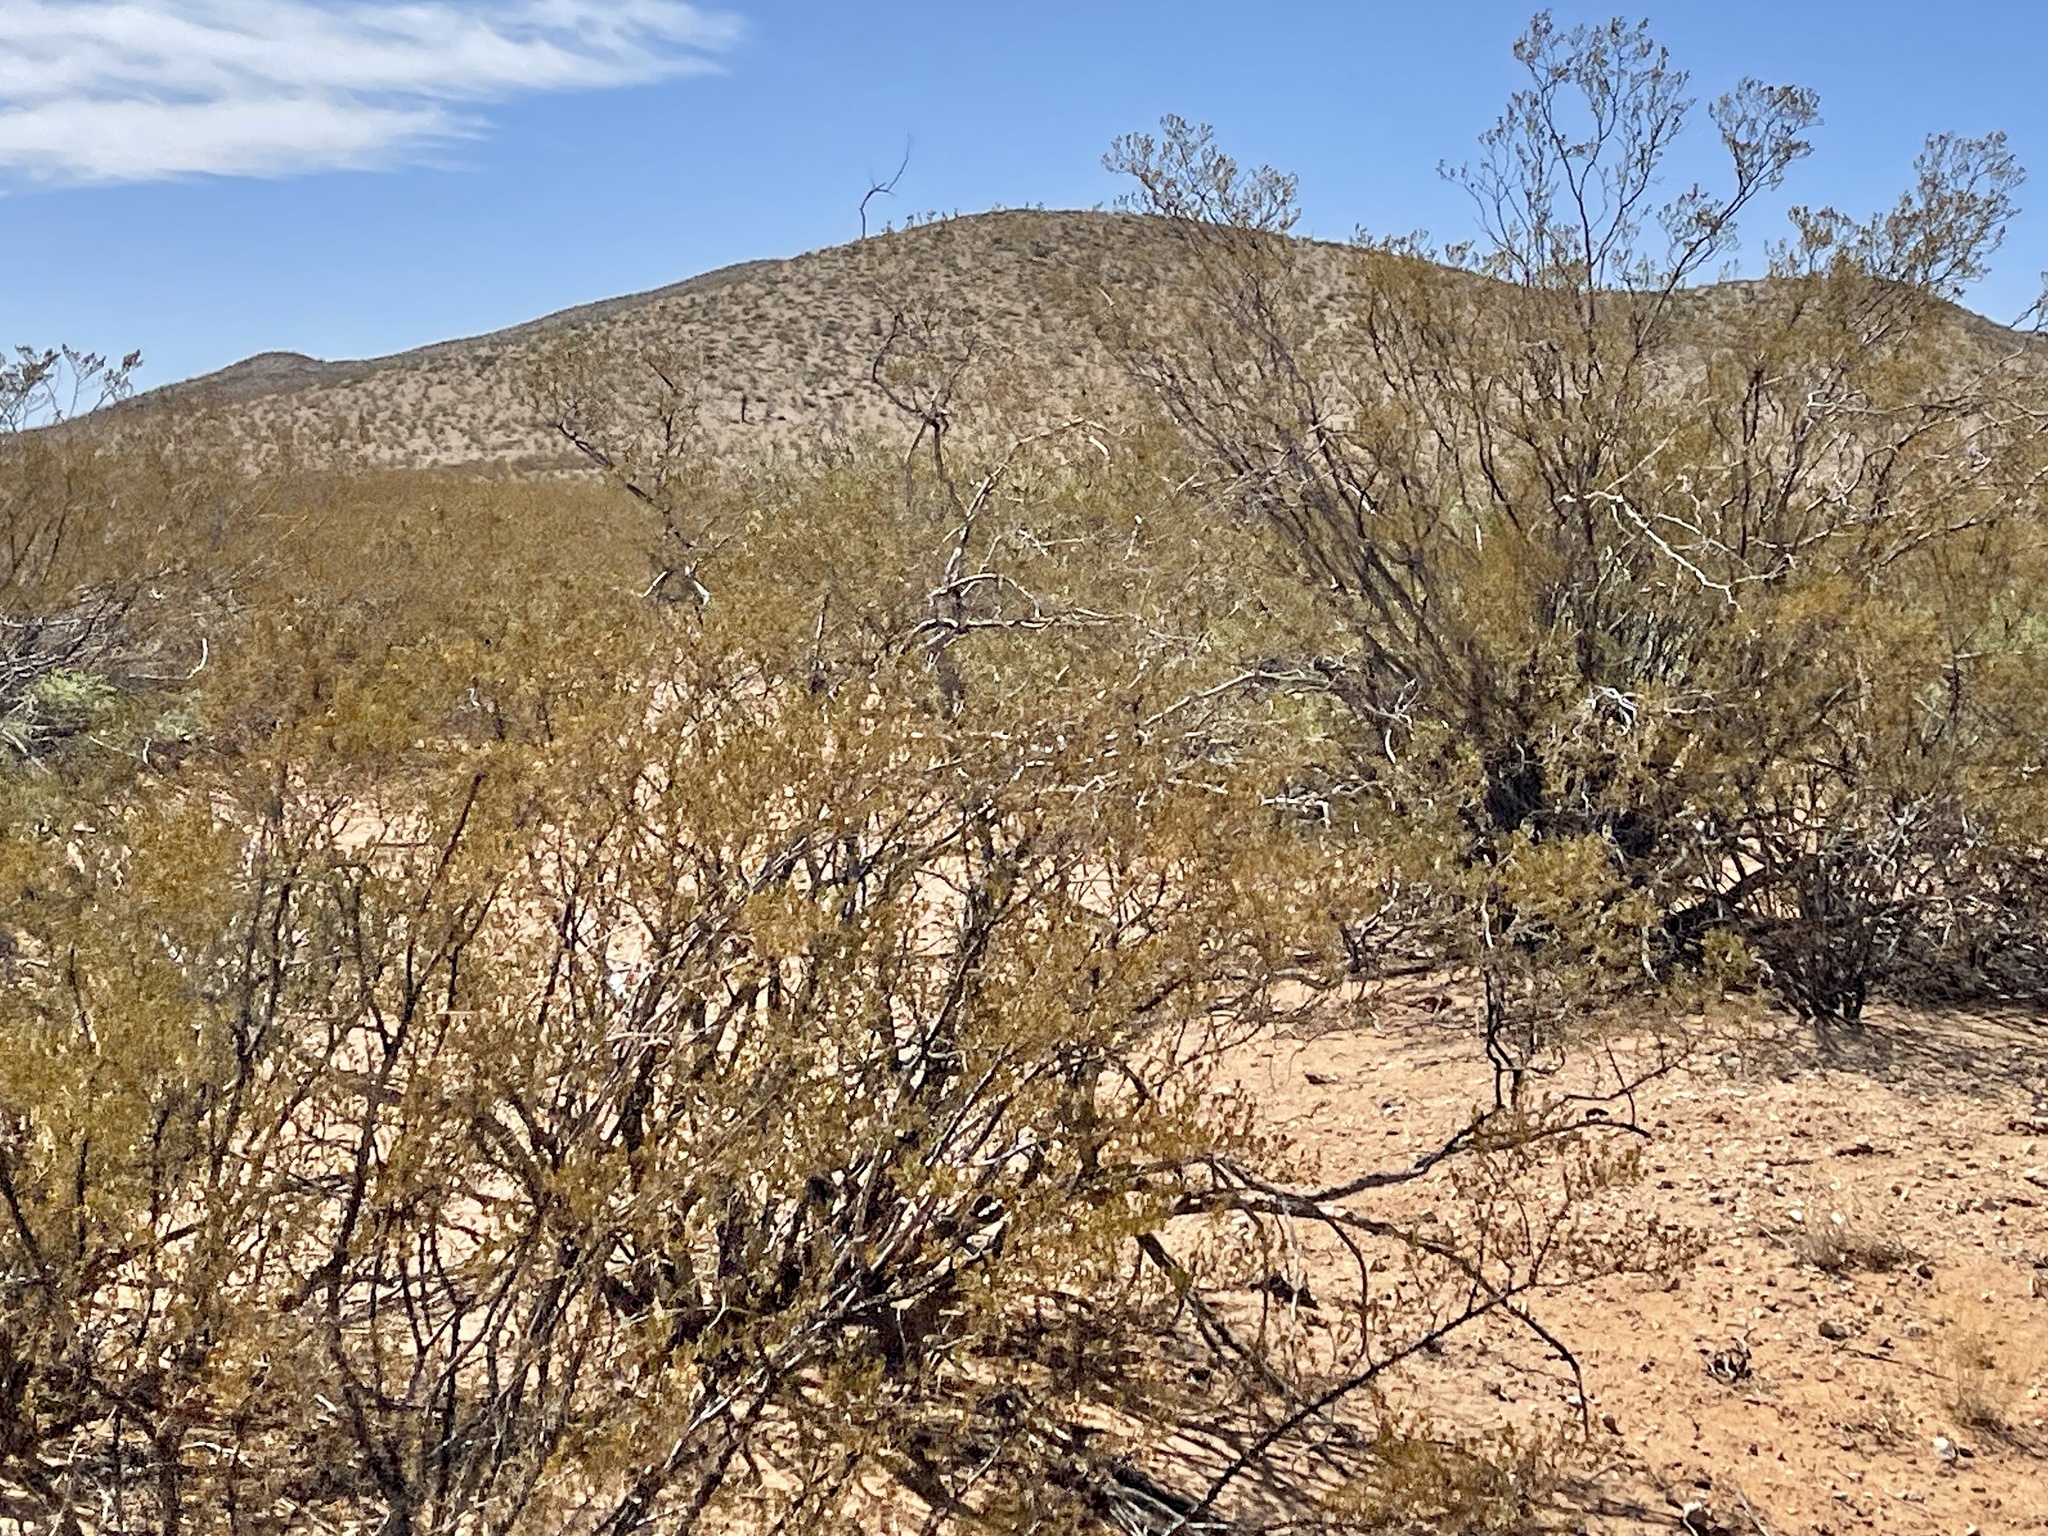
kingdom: Plantae
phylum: Tracheophyta
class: Magnoliopsida
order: Zygophyllales
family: Zygophyllaceae
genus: Larrea
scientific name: Larrea tridentata
